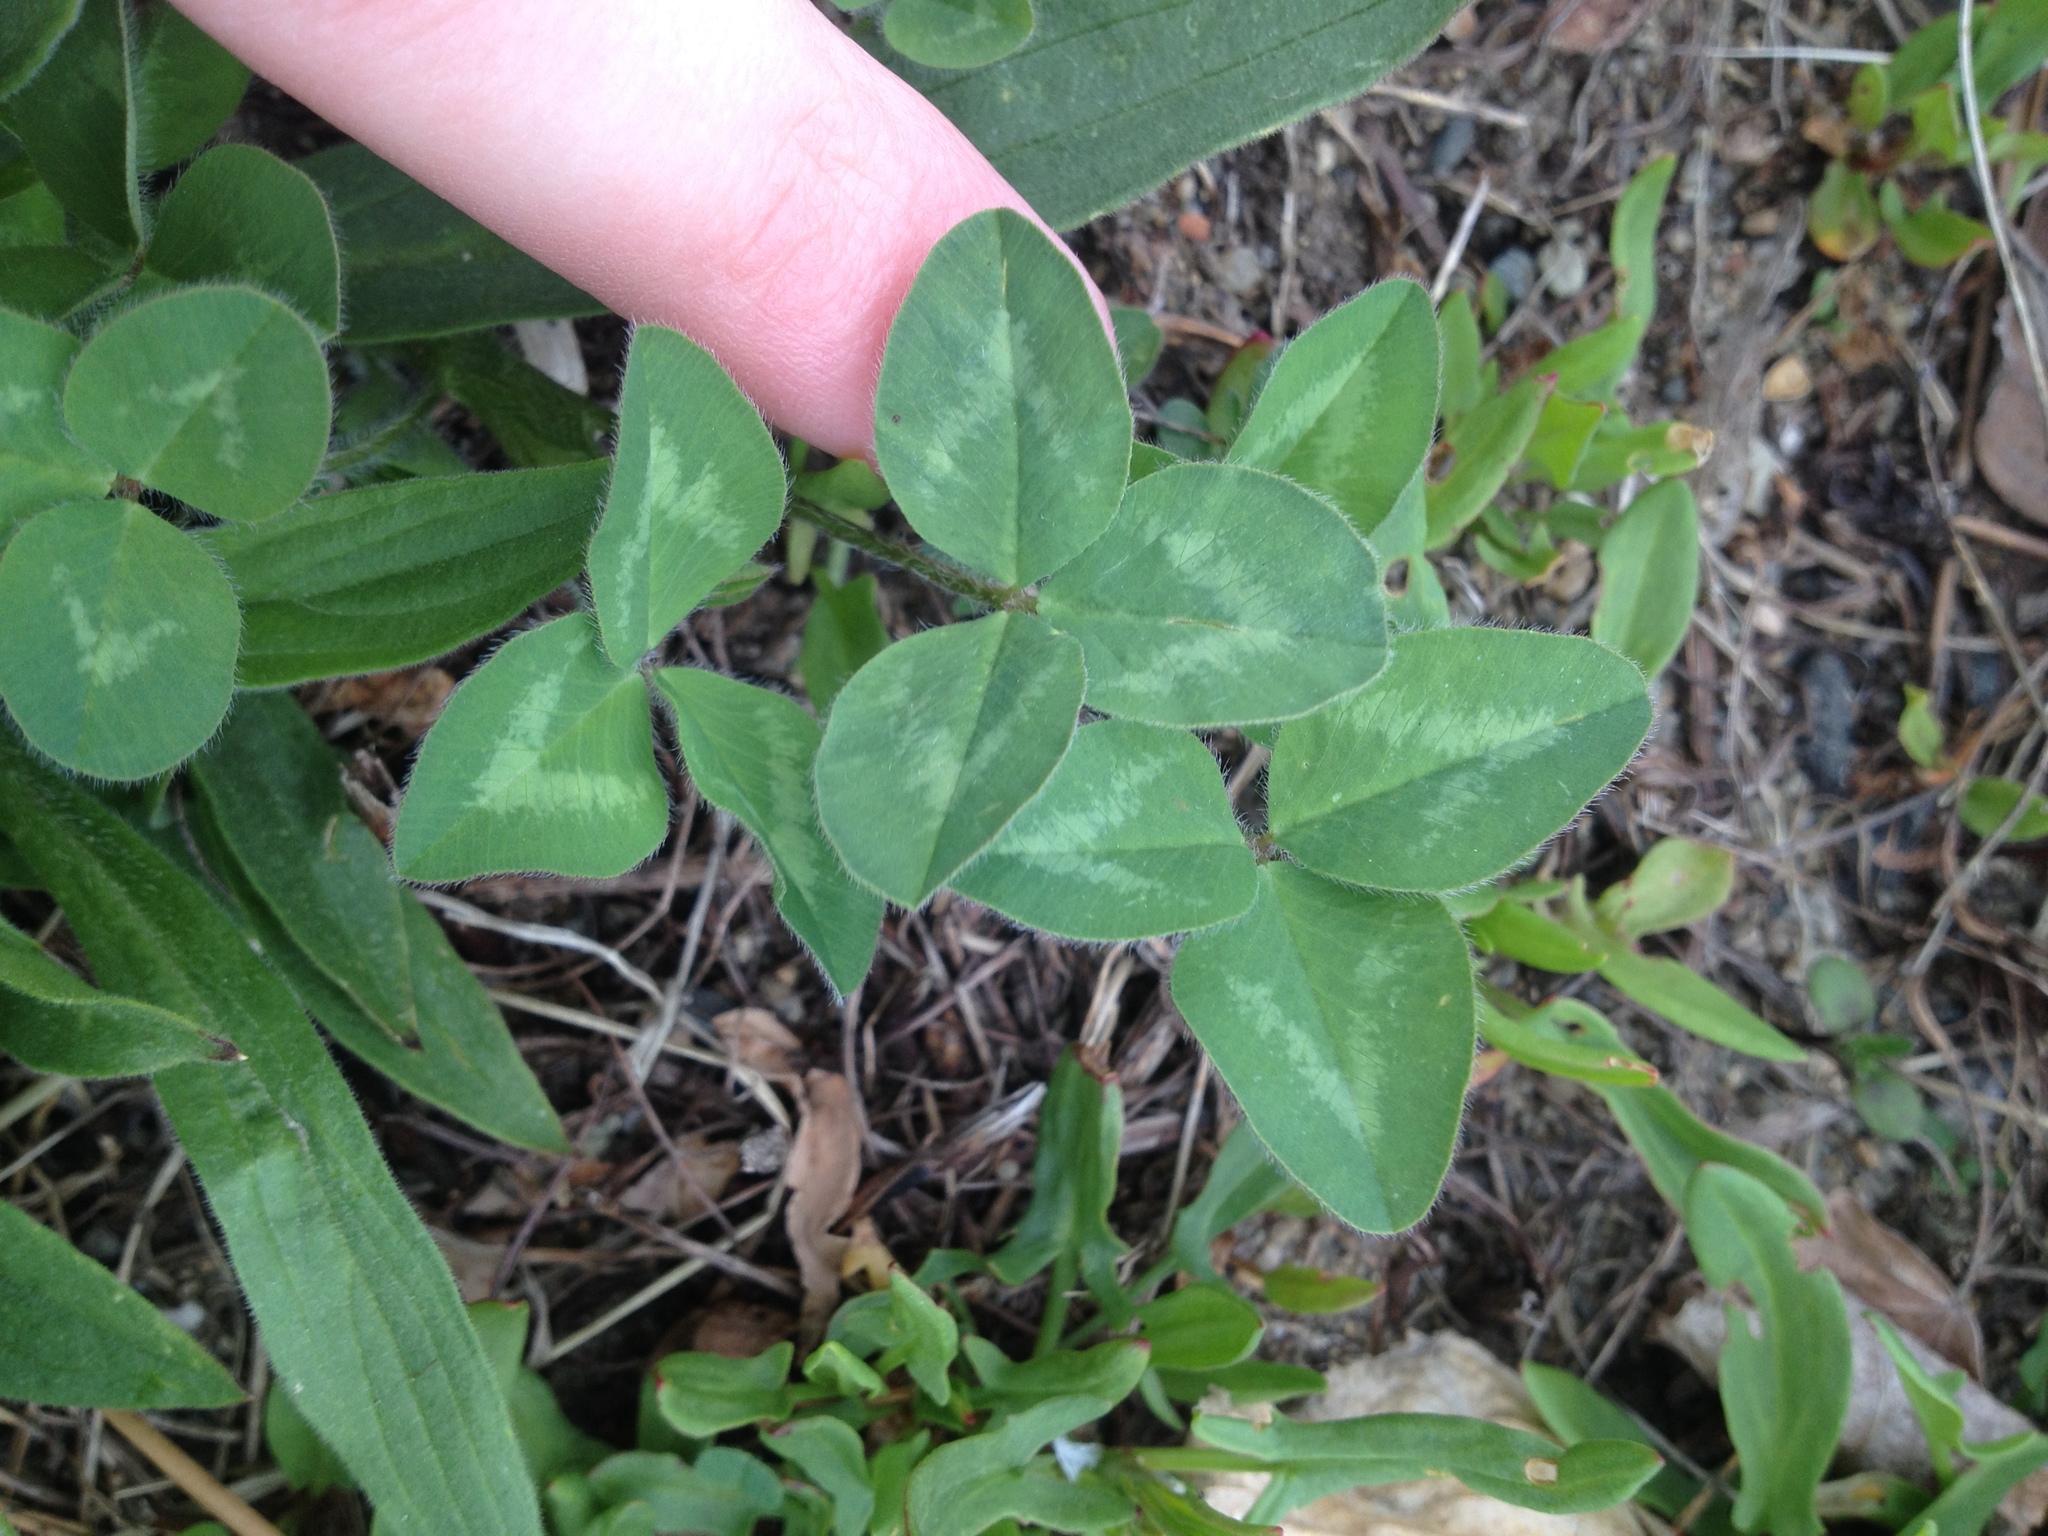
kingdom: Plantae
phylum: Tracheophyta
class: Magnoliopsida
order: Fabales
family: Fabaceae
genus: Trifolium
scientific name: Trifolium pratense
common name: Red clover
